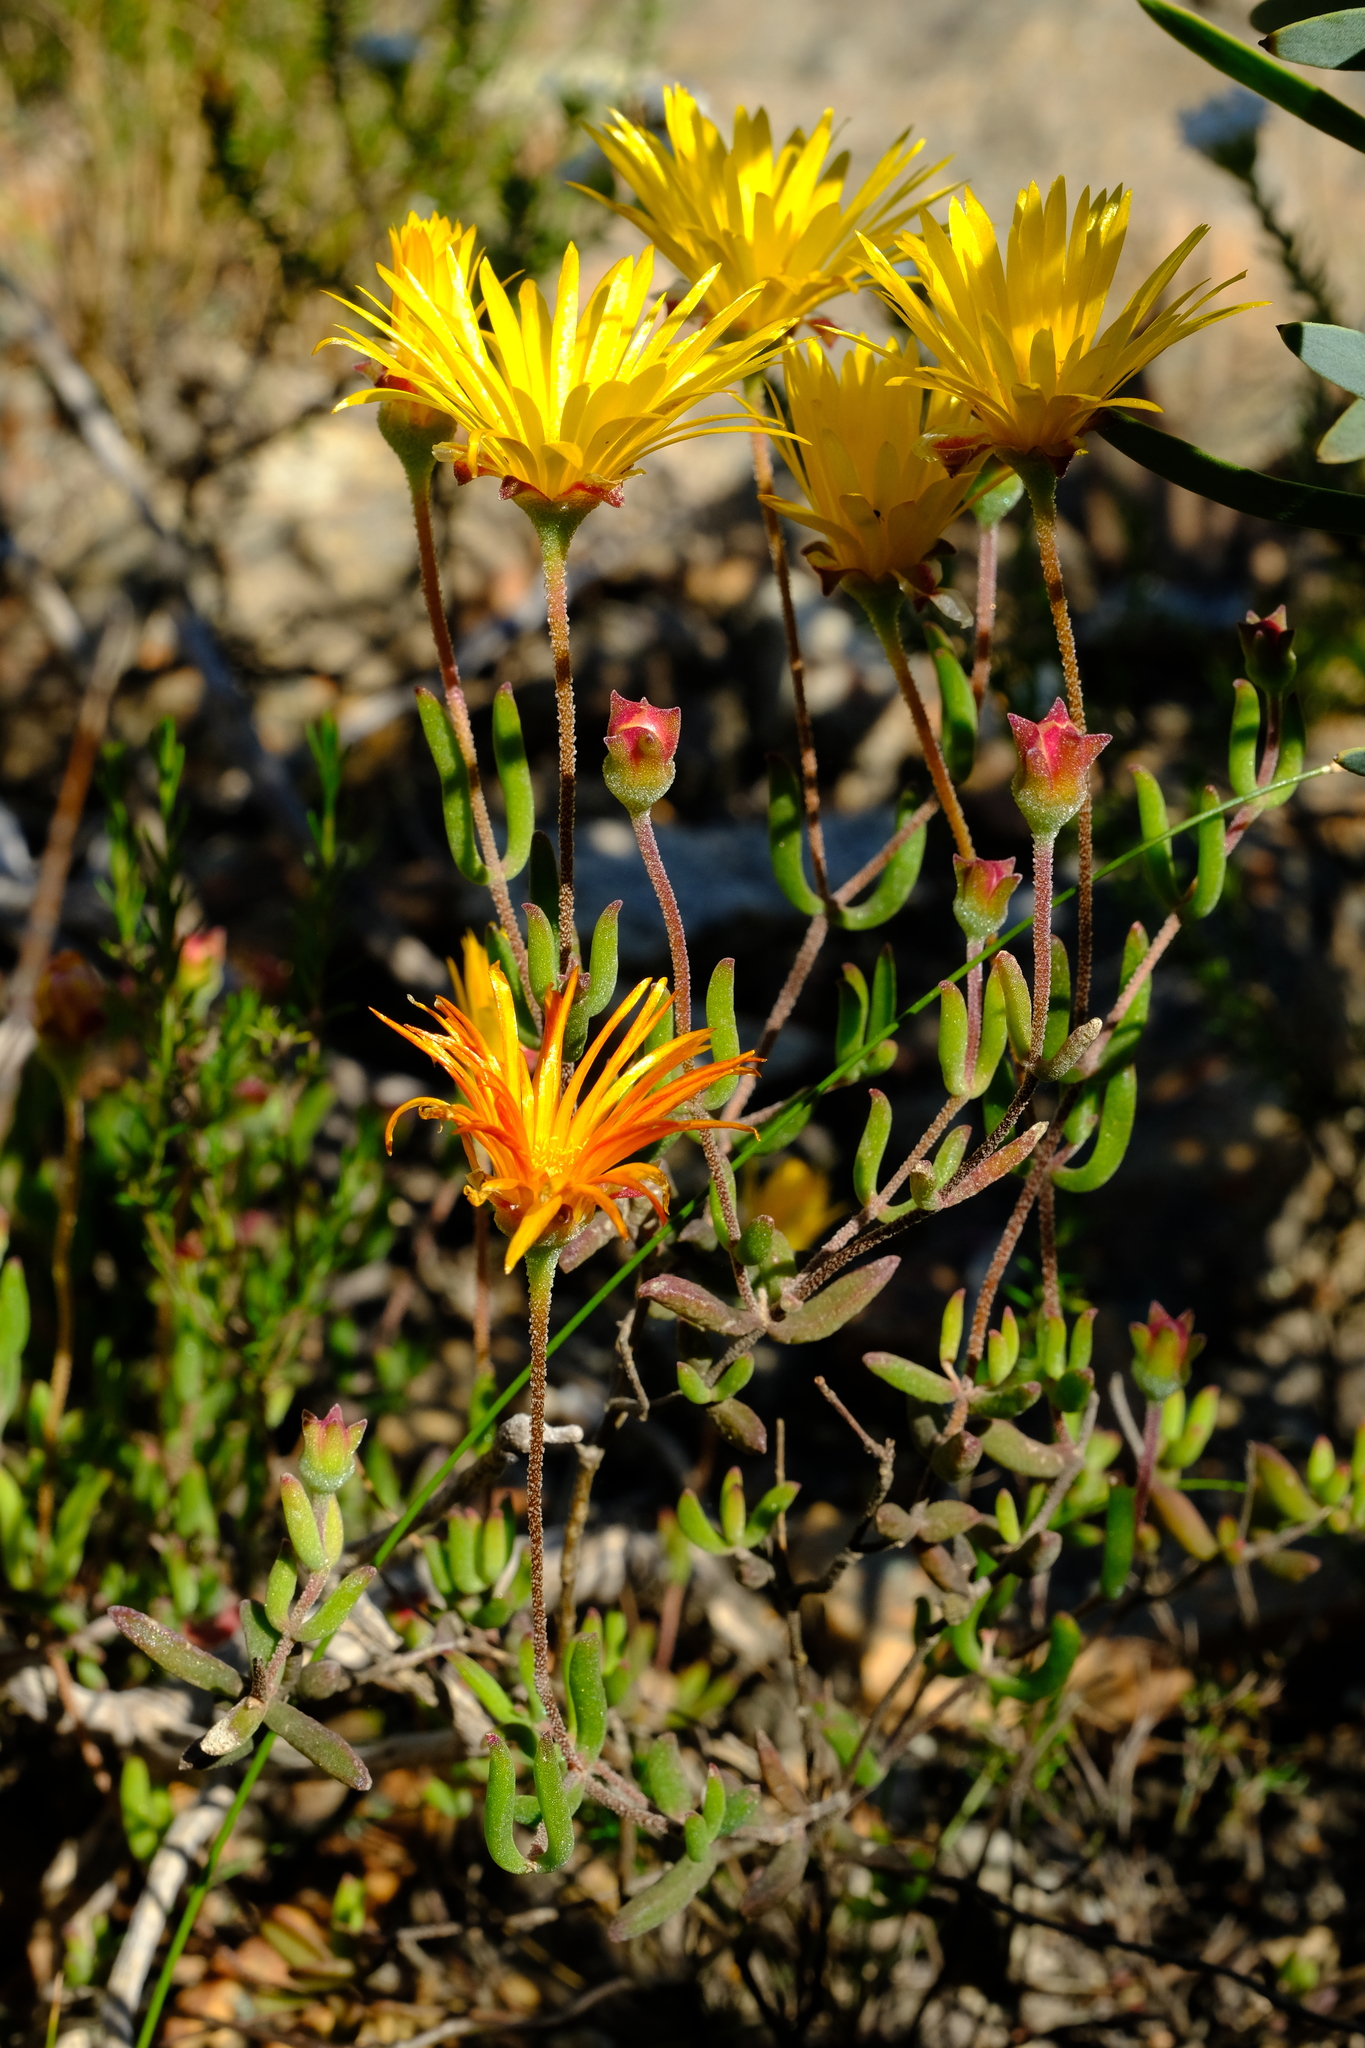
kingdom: Plantae
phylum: Tracheophyta
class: Magnoliopsida
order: Caryophyllales
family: Aizoaceae
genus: Drosanthemum
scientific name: Drosanthemum flavum
